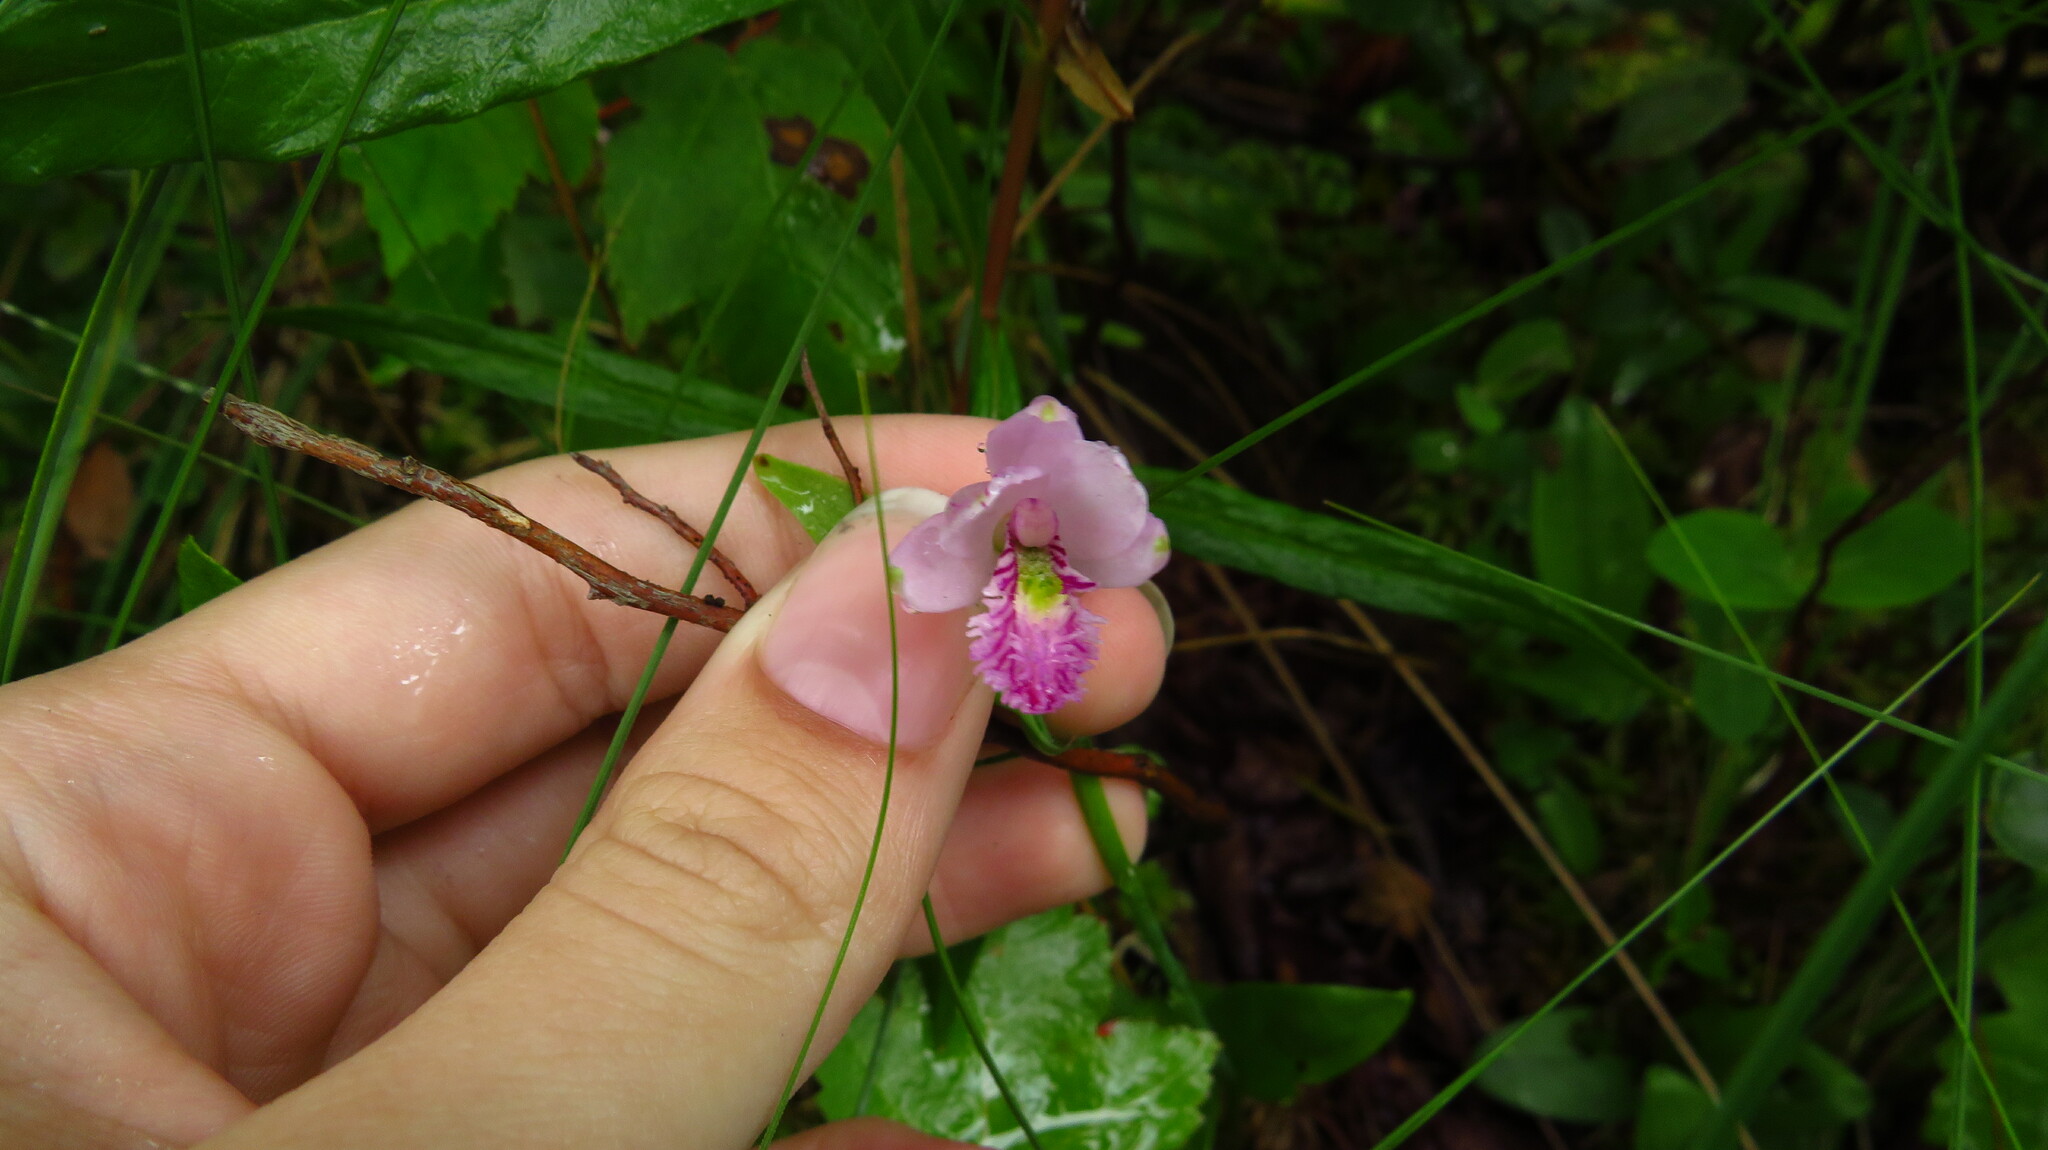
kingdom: Plantae
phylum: Tracheophyta
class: Liliopsida
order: Asparagales
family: Orchidaceae
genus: Pogonia
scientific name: Pogonia ophioglossoides
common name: Rose pogonia
